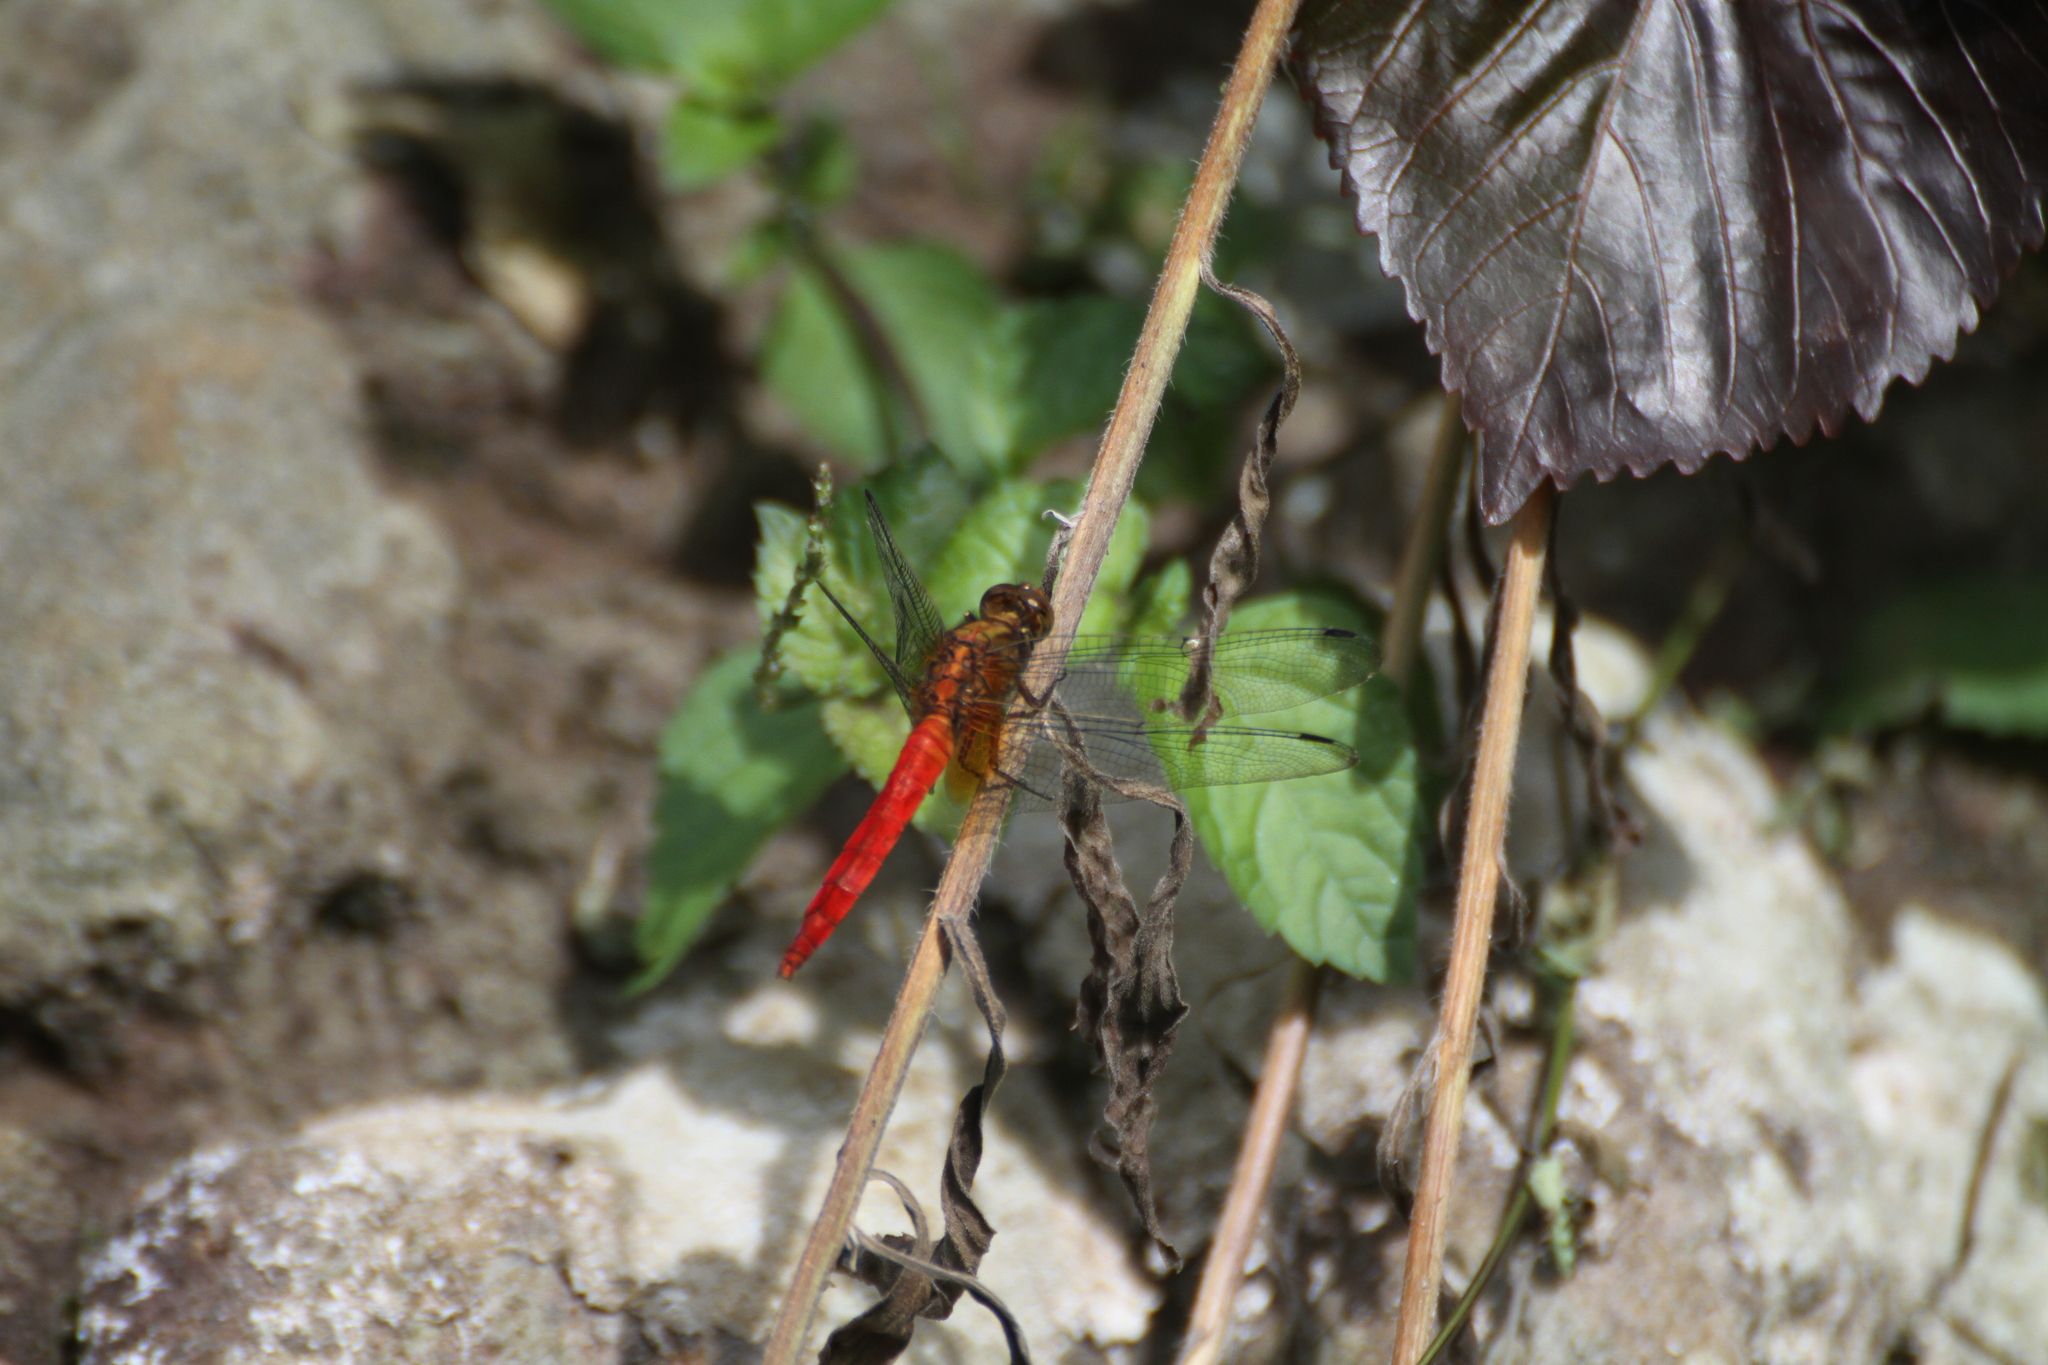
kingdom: Animalia
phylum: Arthropoda
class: Insecta
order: Odonata
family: Libellulidae
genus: Orthetrum
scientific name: Orthetrum testaceum
